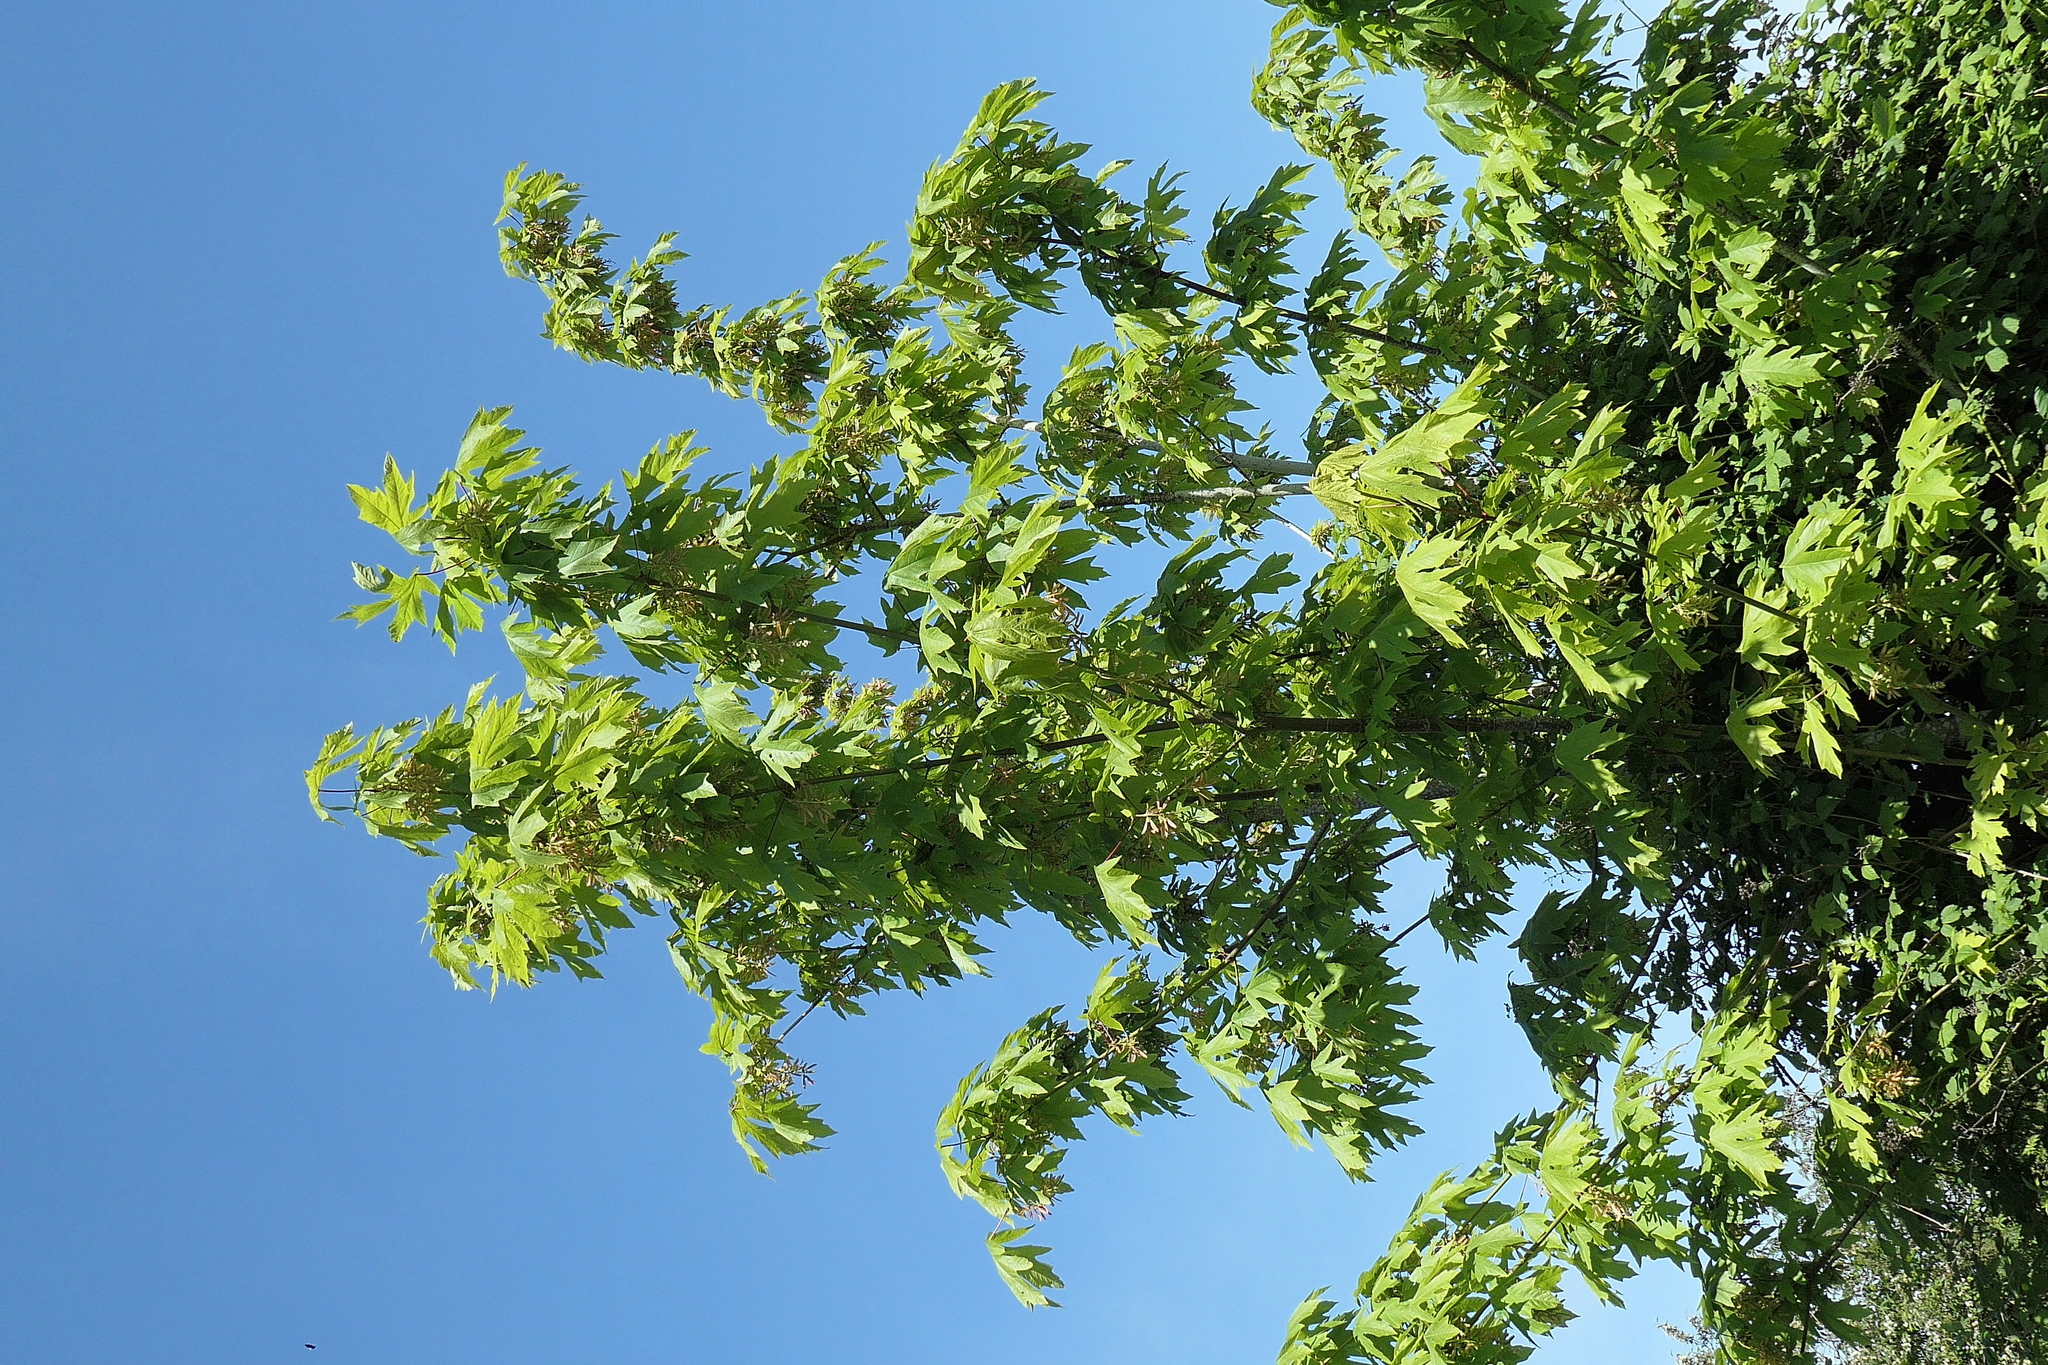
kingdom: Plantae
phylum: Tracheophyta
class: Magnoliopsida
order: Sapindales
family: Sapindaceae
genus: Acer
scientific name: Acer macrophyllum
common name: Oregon maple
